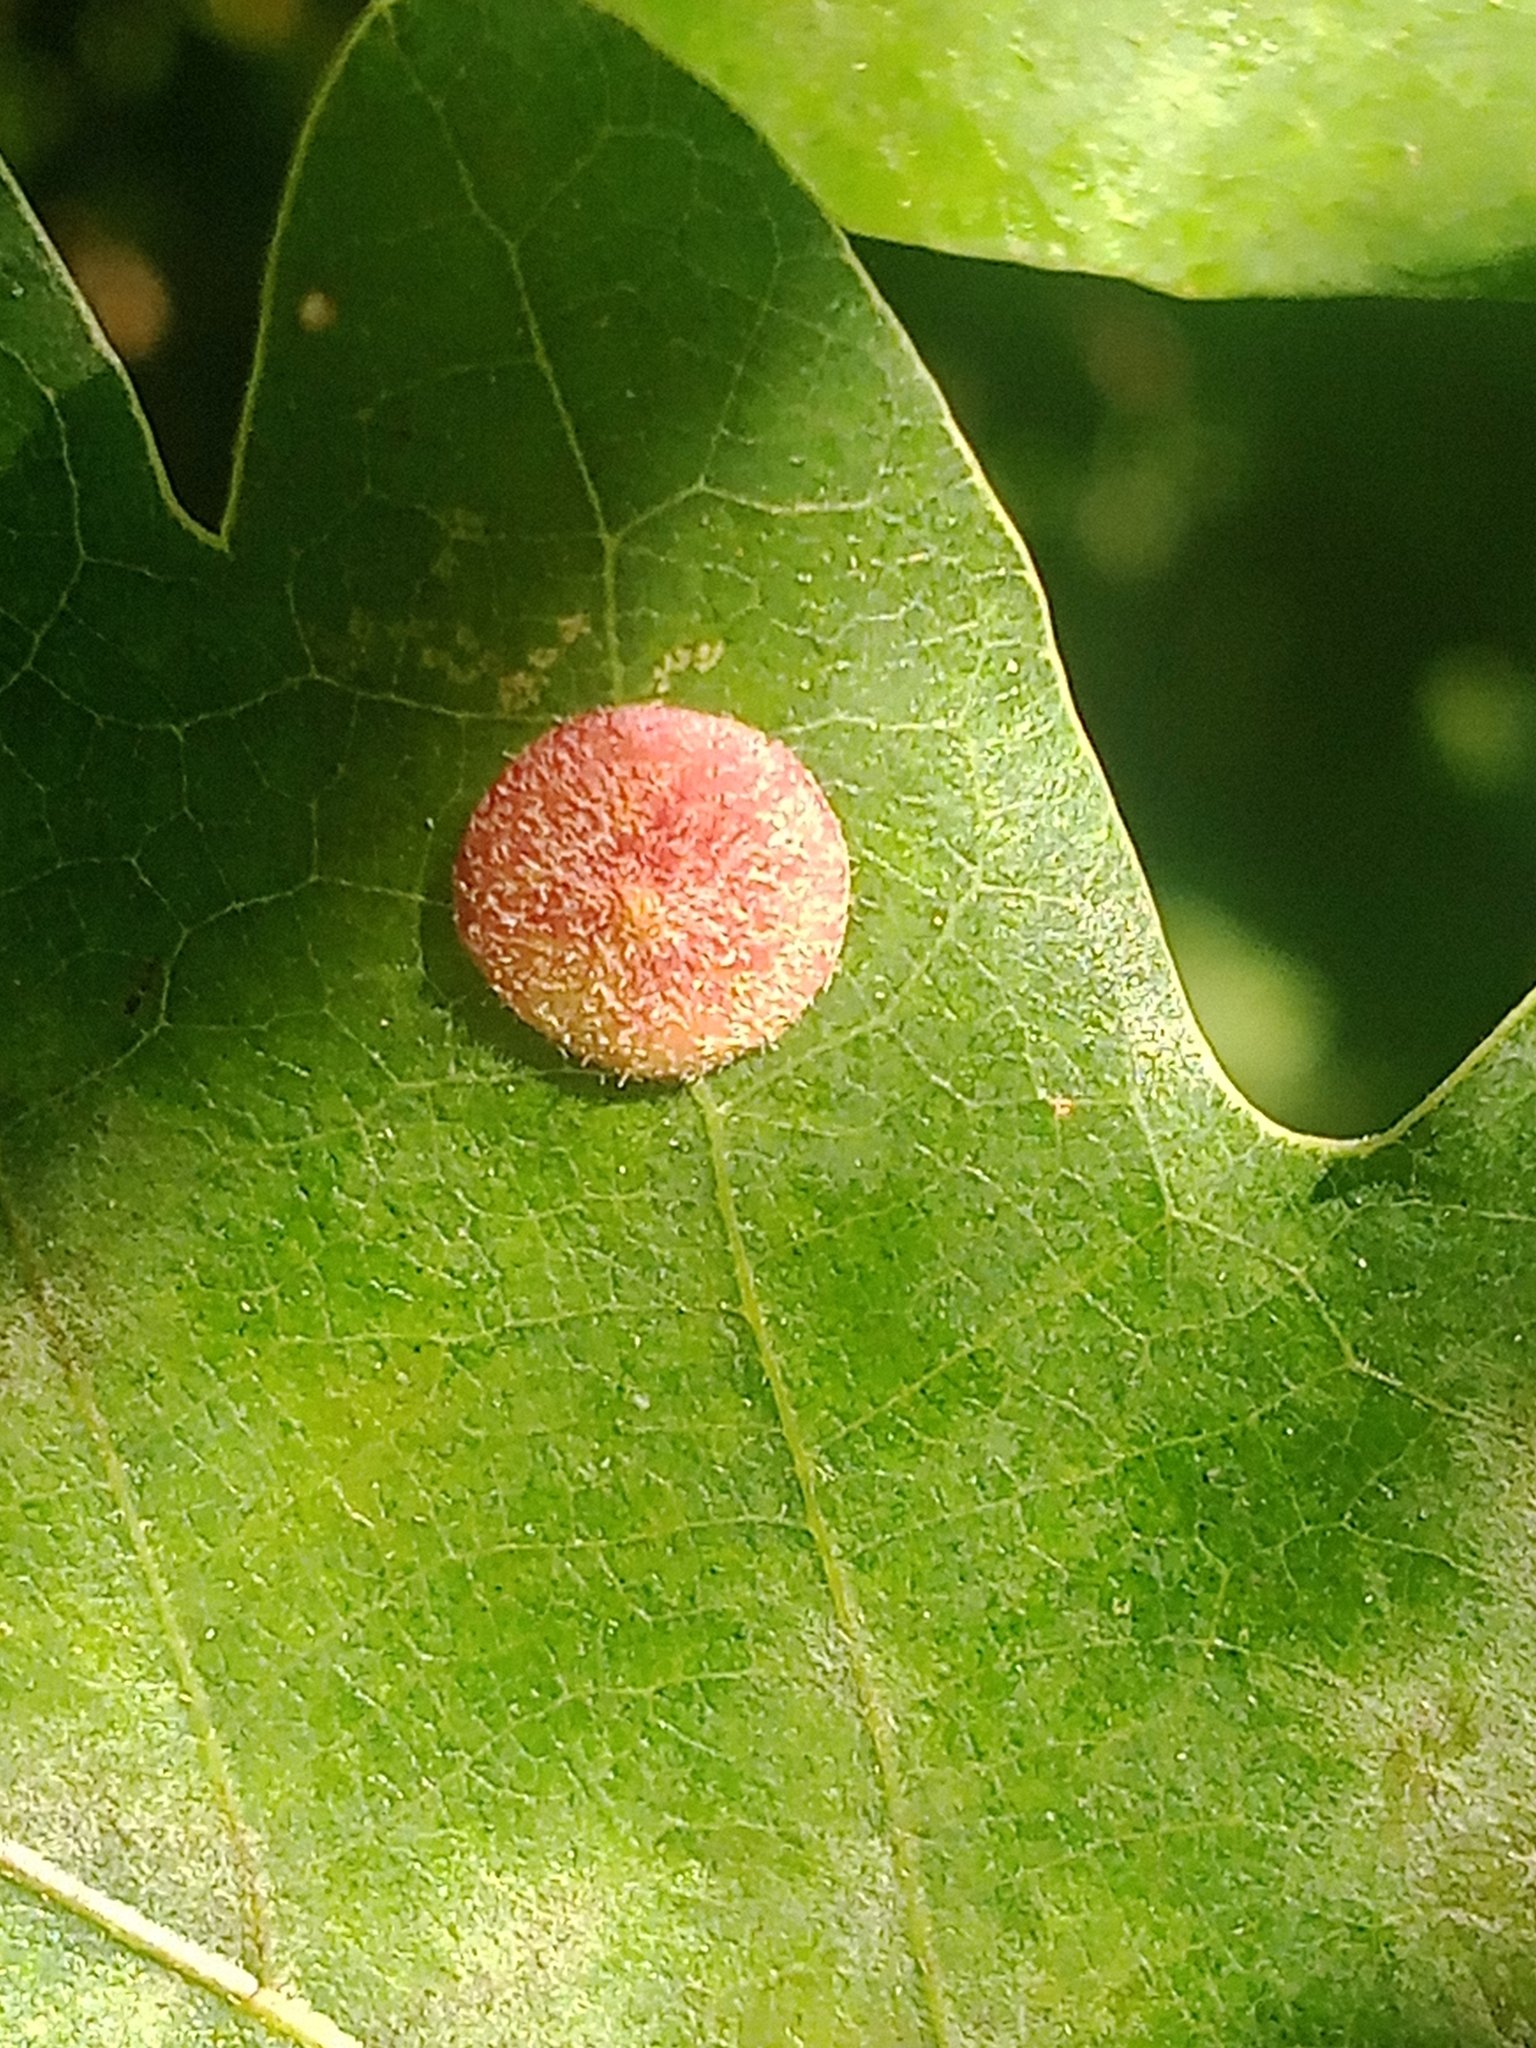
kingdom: Animalia
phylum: Arthropoda
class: Insecta
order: Hymenoptera
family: Cynipidae
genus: Neuroterus
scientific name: Neuroterus quercusbaccarum
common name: Common spangle gall
